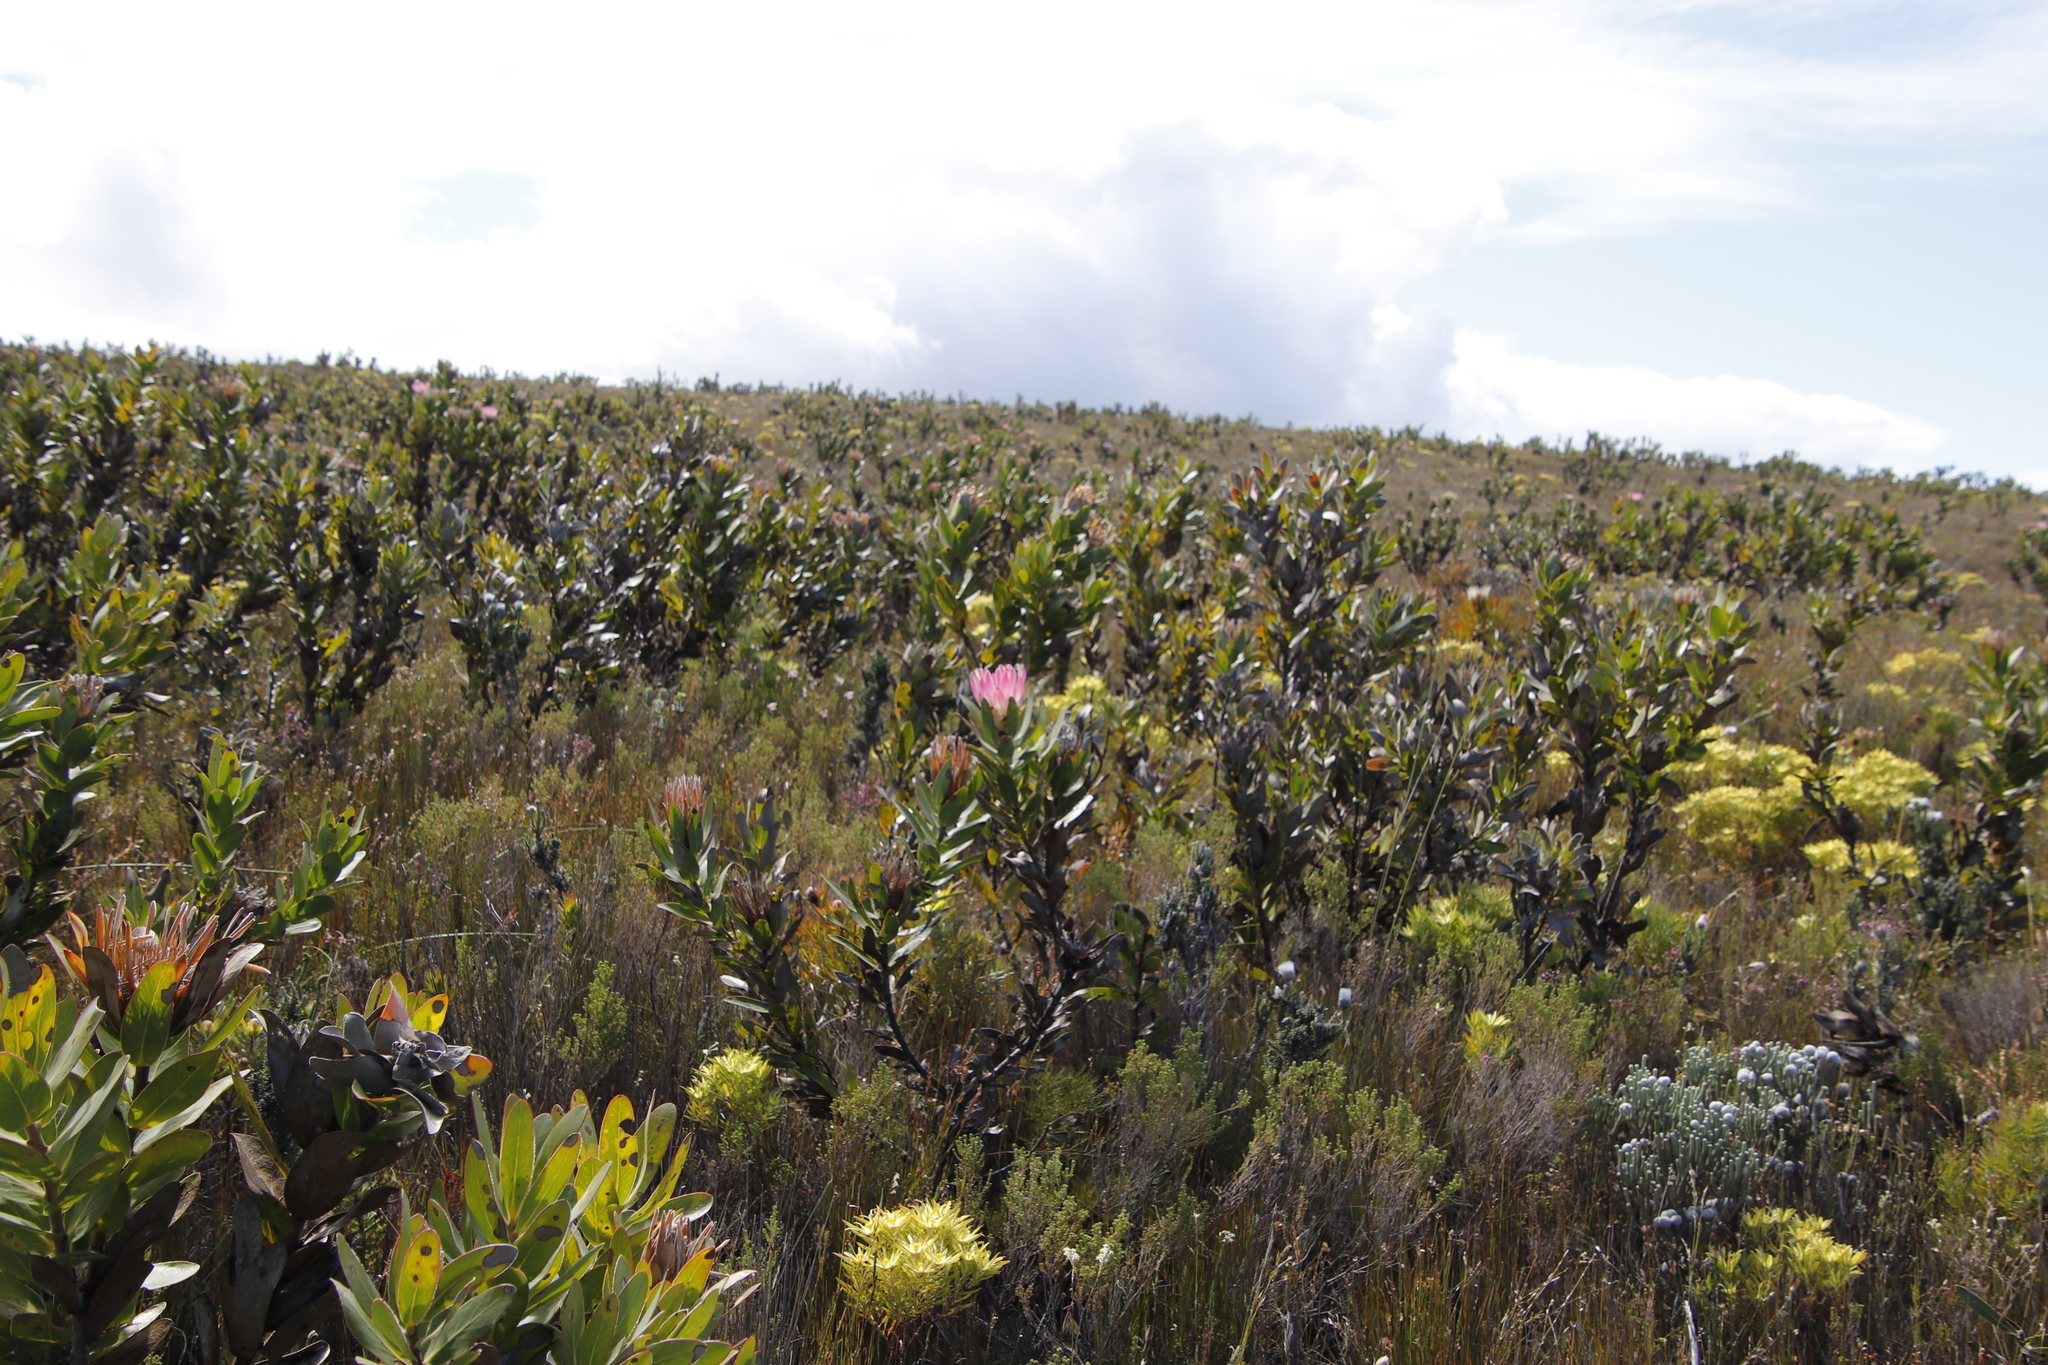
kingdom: Plantae
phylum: Tracheophyta
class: Magnoliopsida
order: Proteales
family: Proteaceae
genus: Protea
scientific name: Protea compacta
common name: Bot river protea
